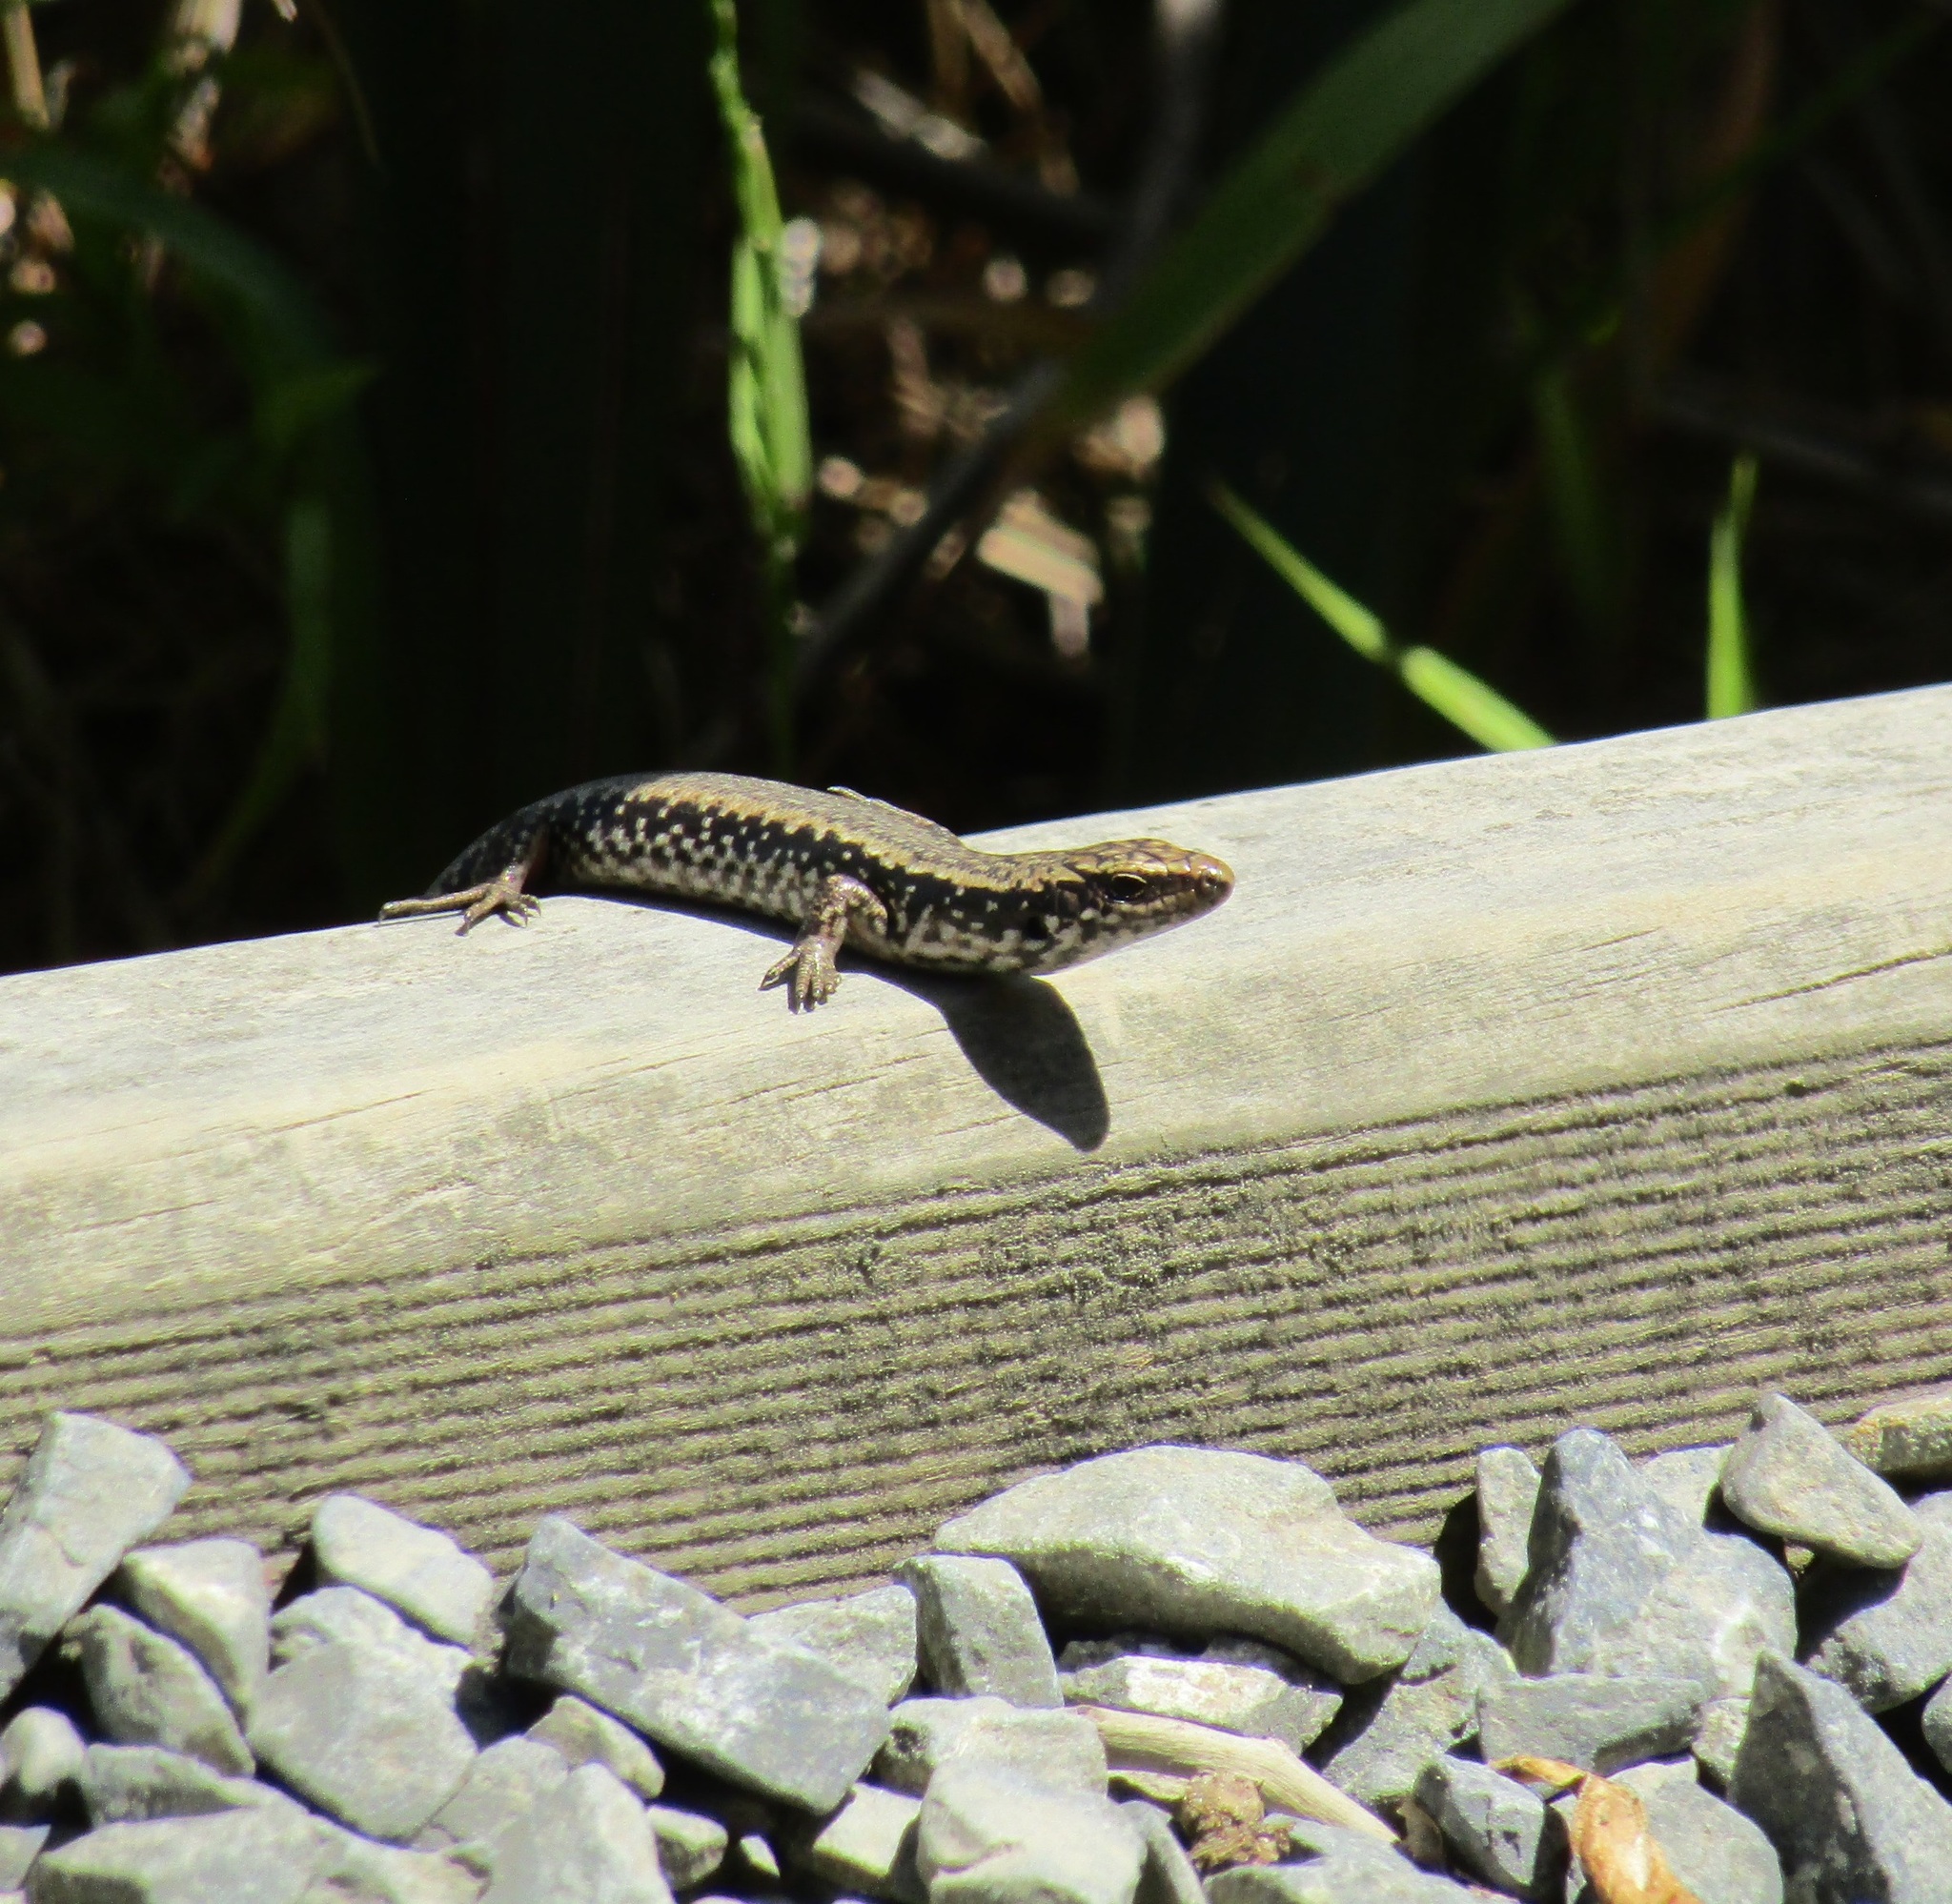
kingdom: Animalia
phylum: Chordata
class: Squamata
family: Scincidae
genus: Oligosoma
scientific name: Oligosoma kokowai
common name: Northern spotted skink
